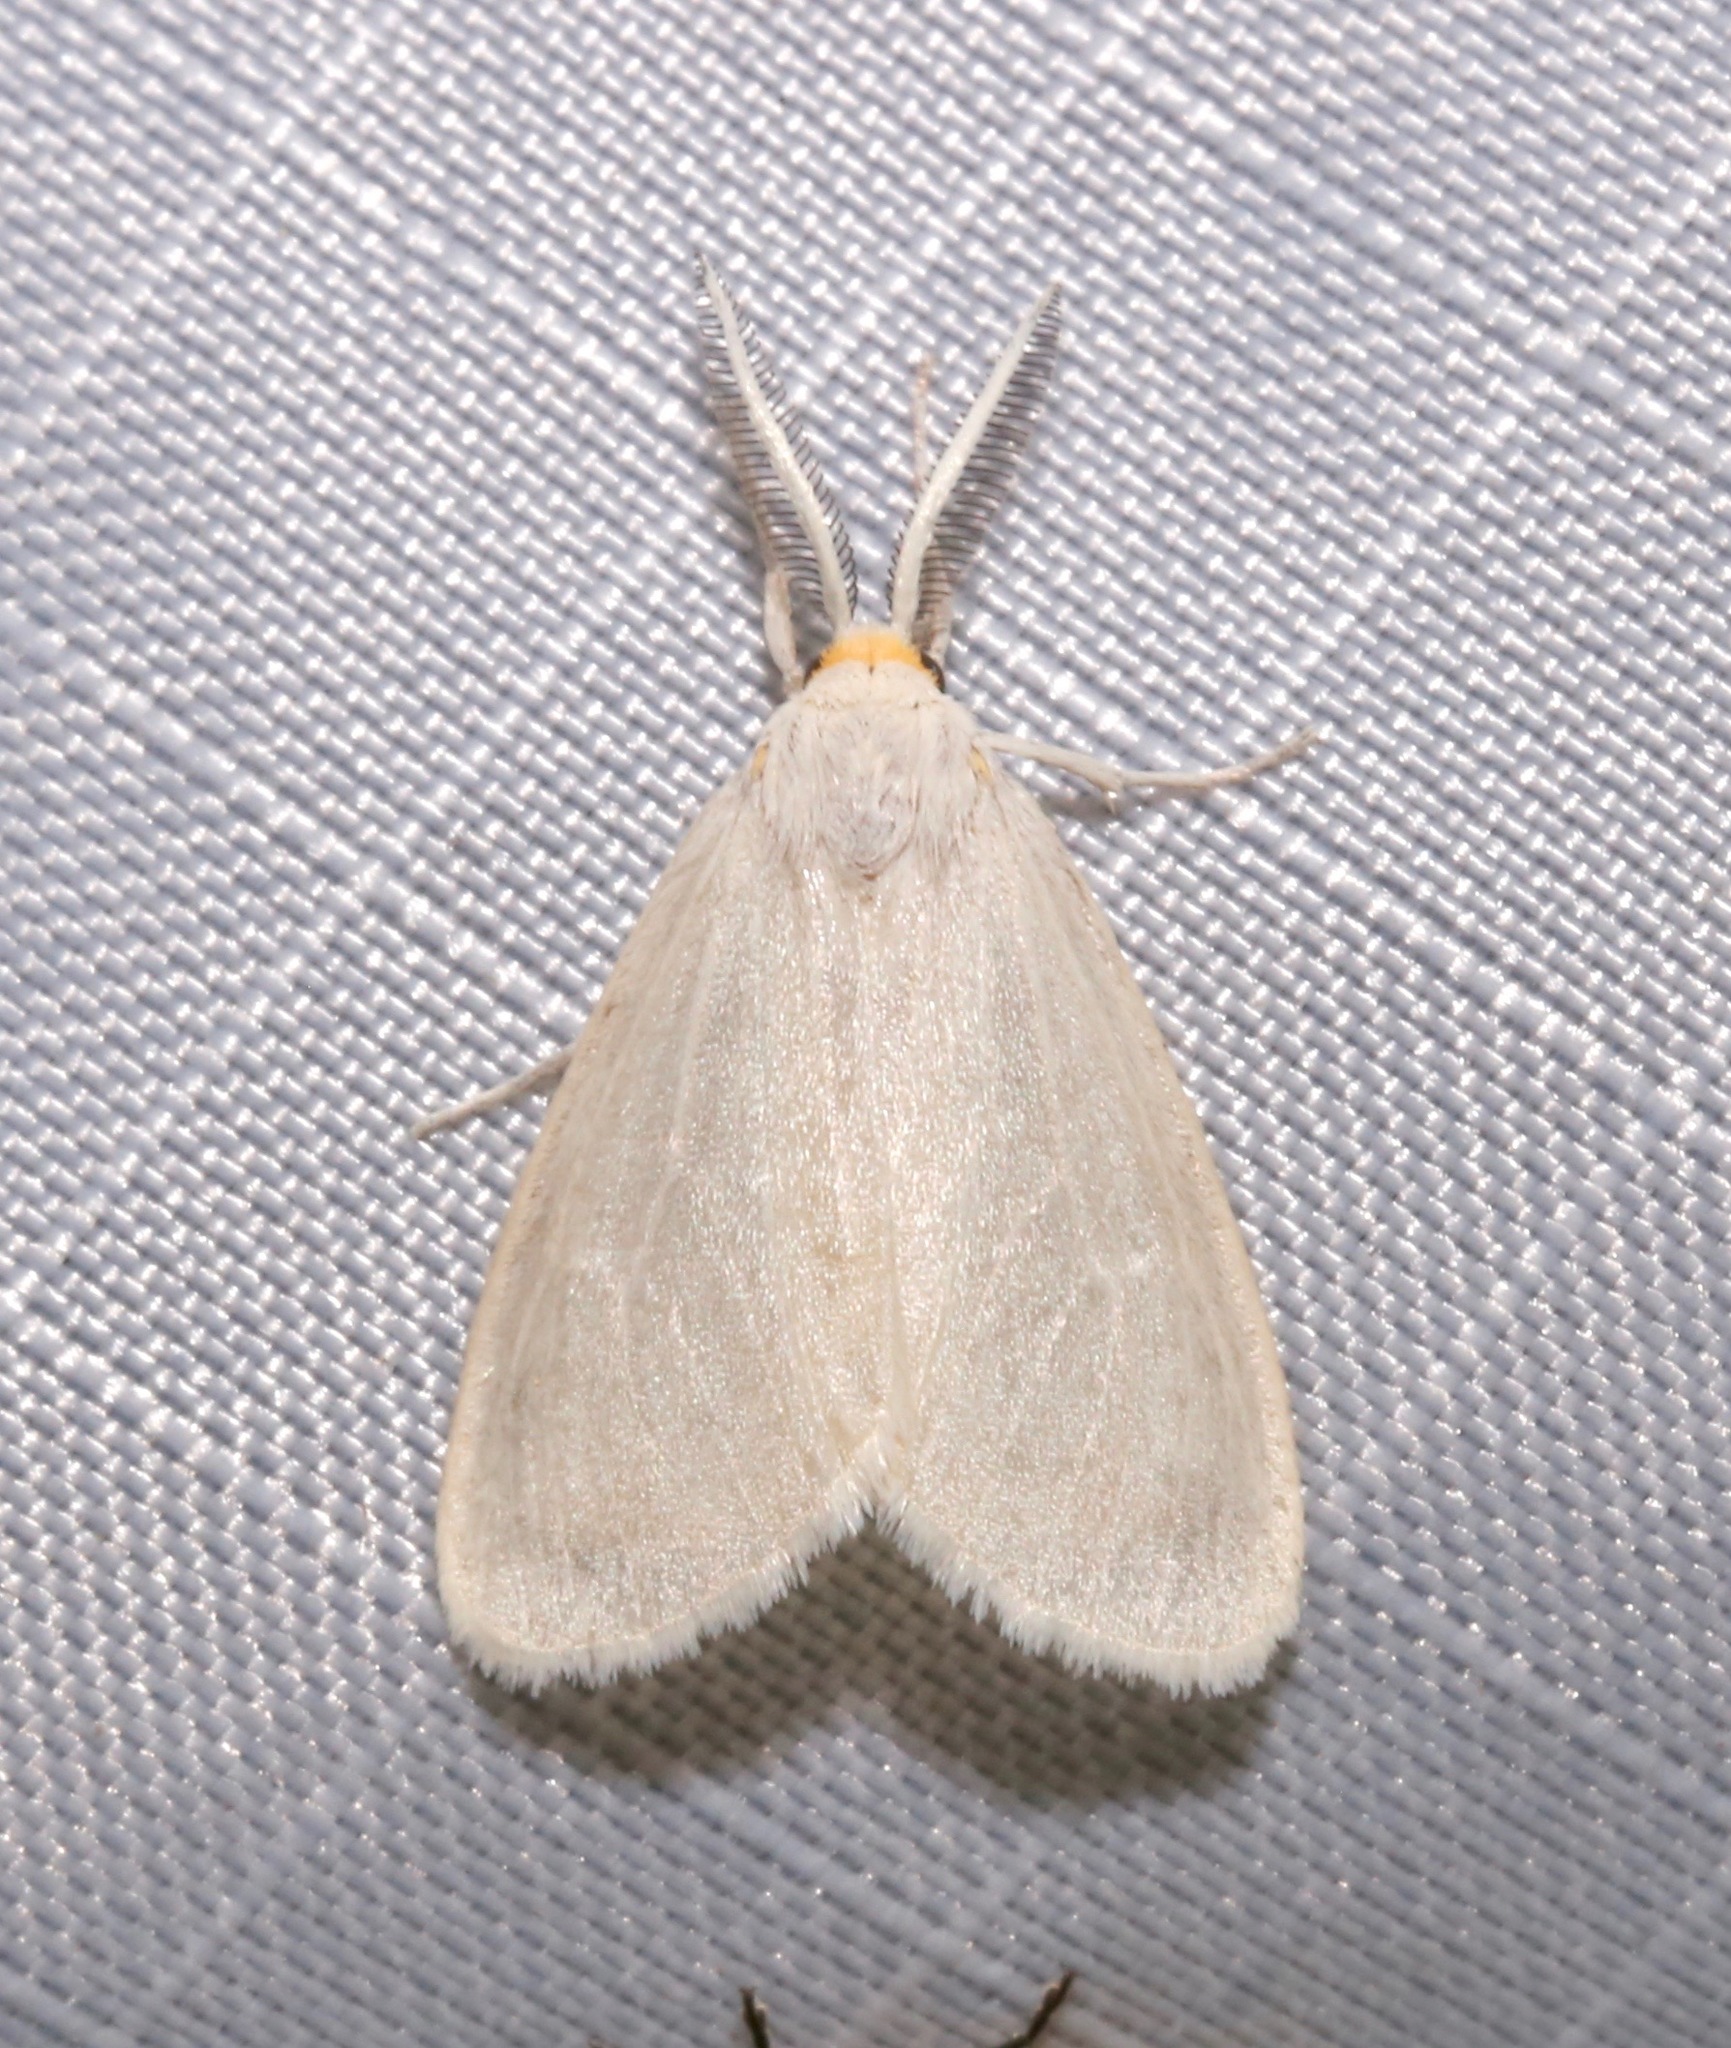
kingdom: Animalia
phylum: Arthropoda
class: Insecta
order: Lepidoptera
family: Erebidae
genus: Neoplynes
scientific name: Neoplynes eudora
